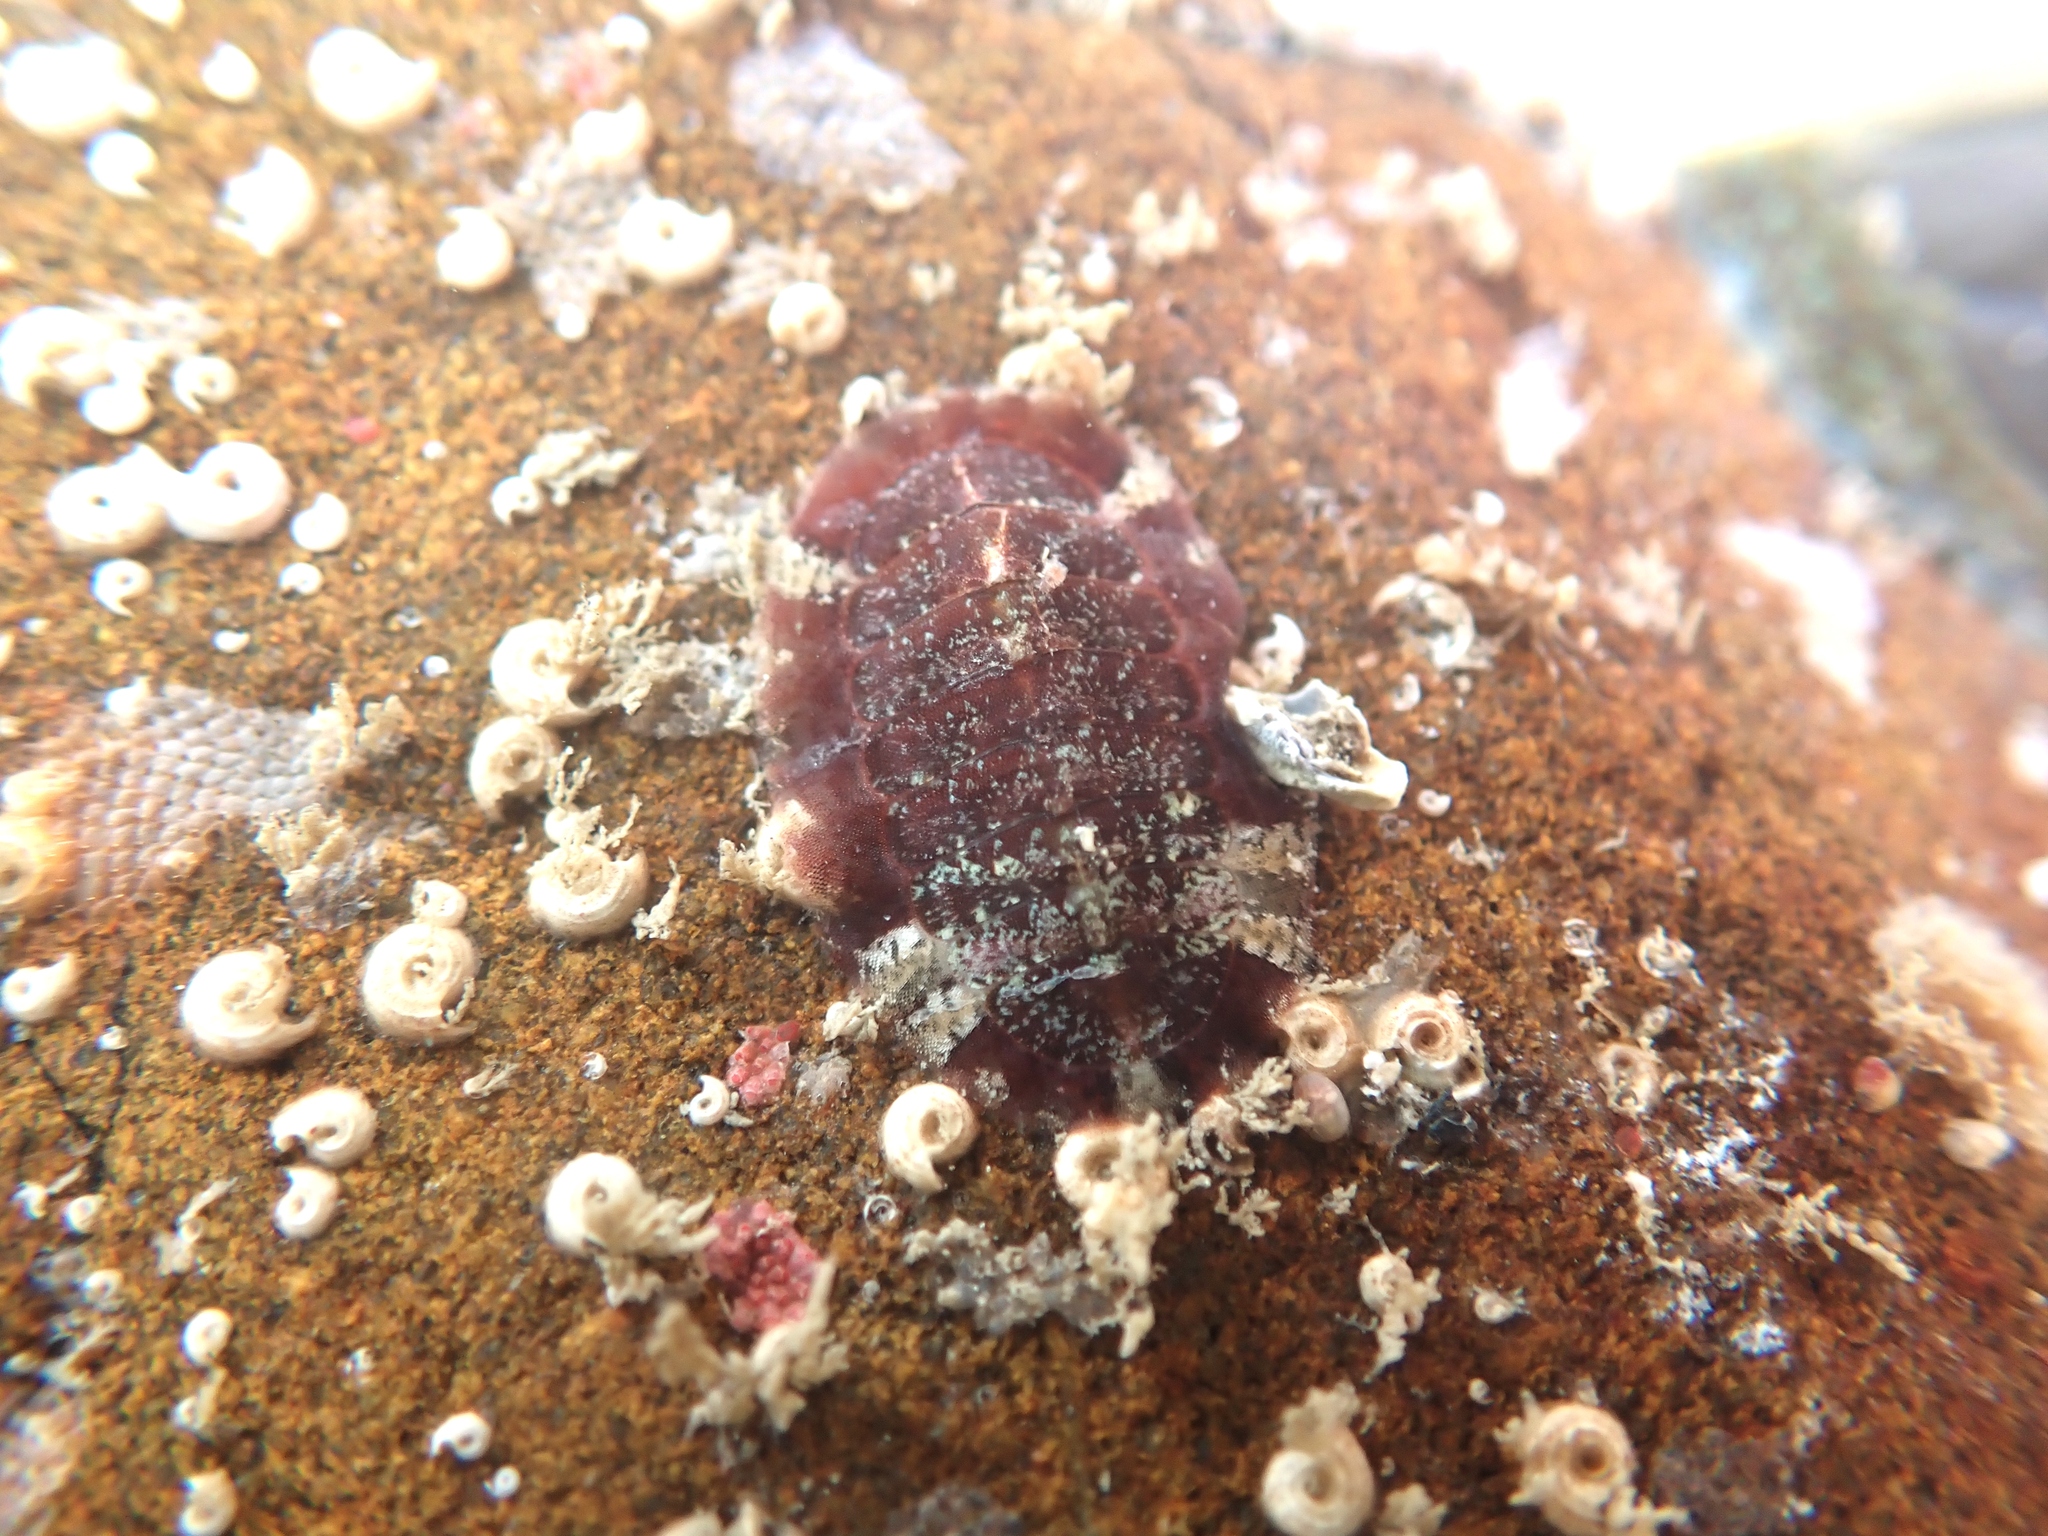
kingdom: Animalia
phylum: Mollusca
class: Polyplacophora
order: Callochitonida
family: Callochitonidae
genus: Callochiton
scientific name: Callochiton crocinus
